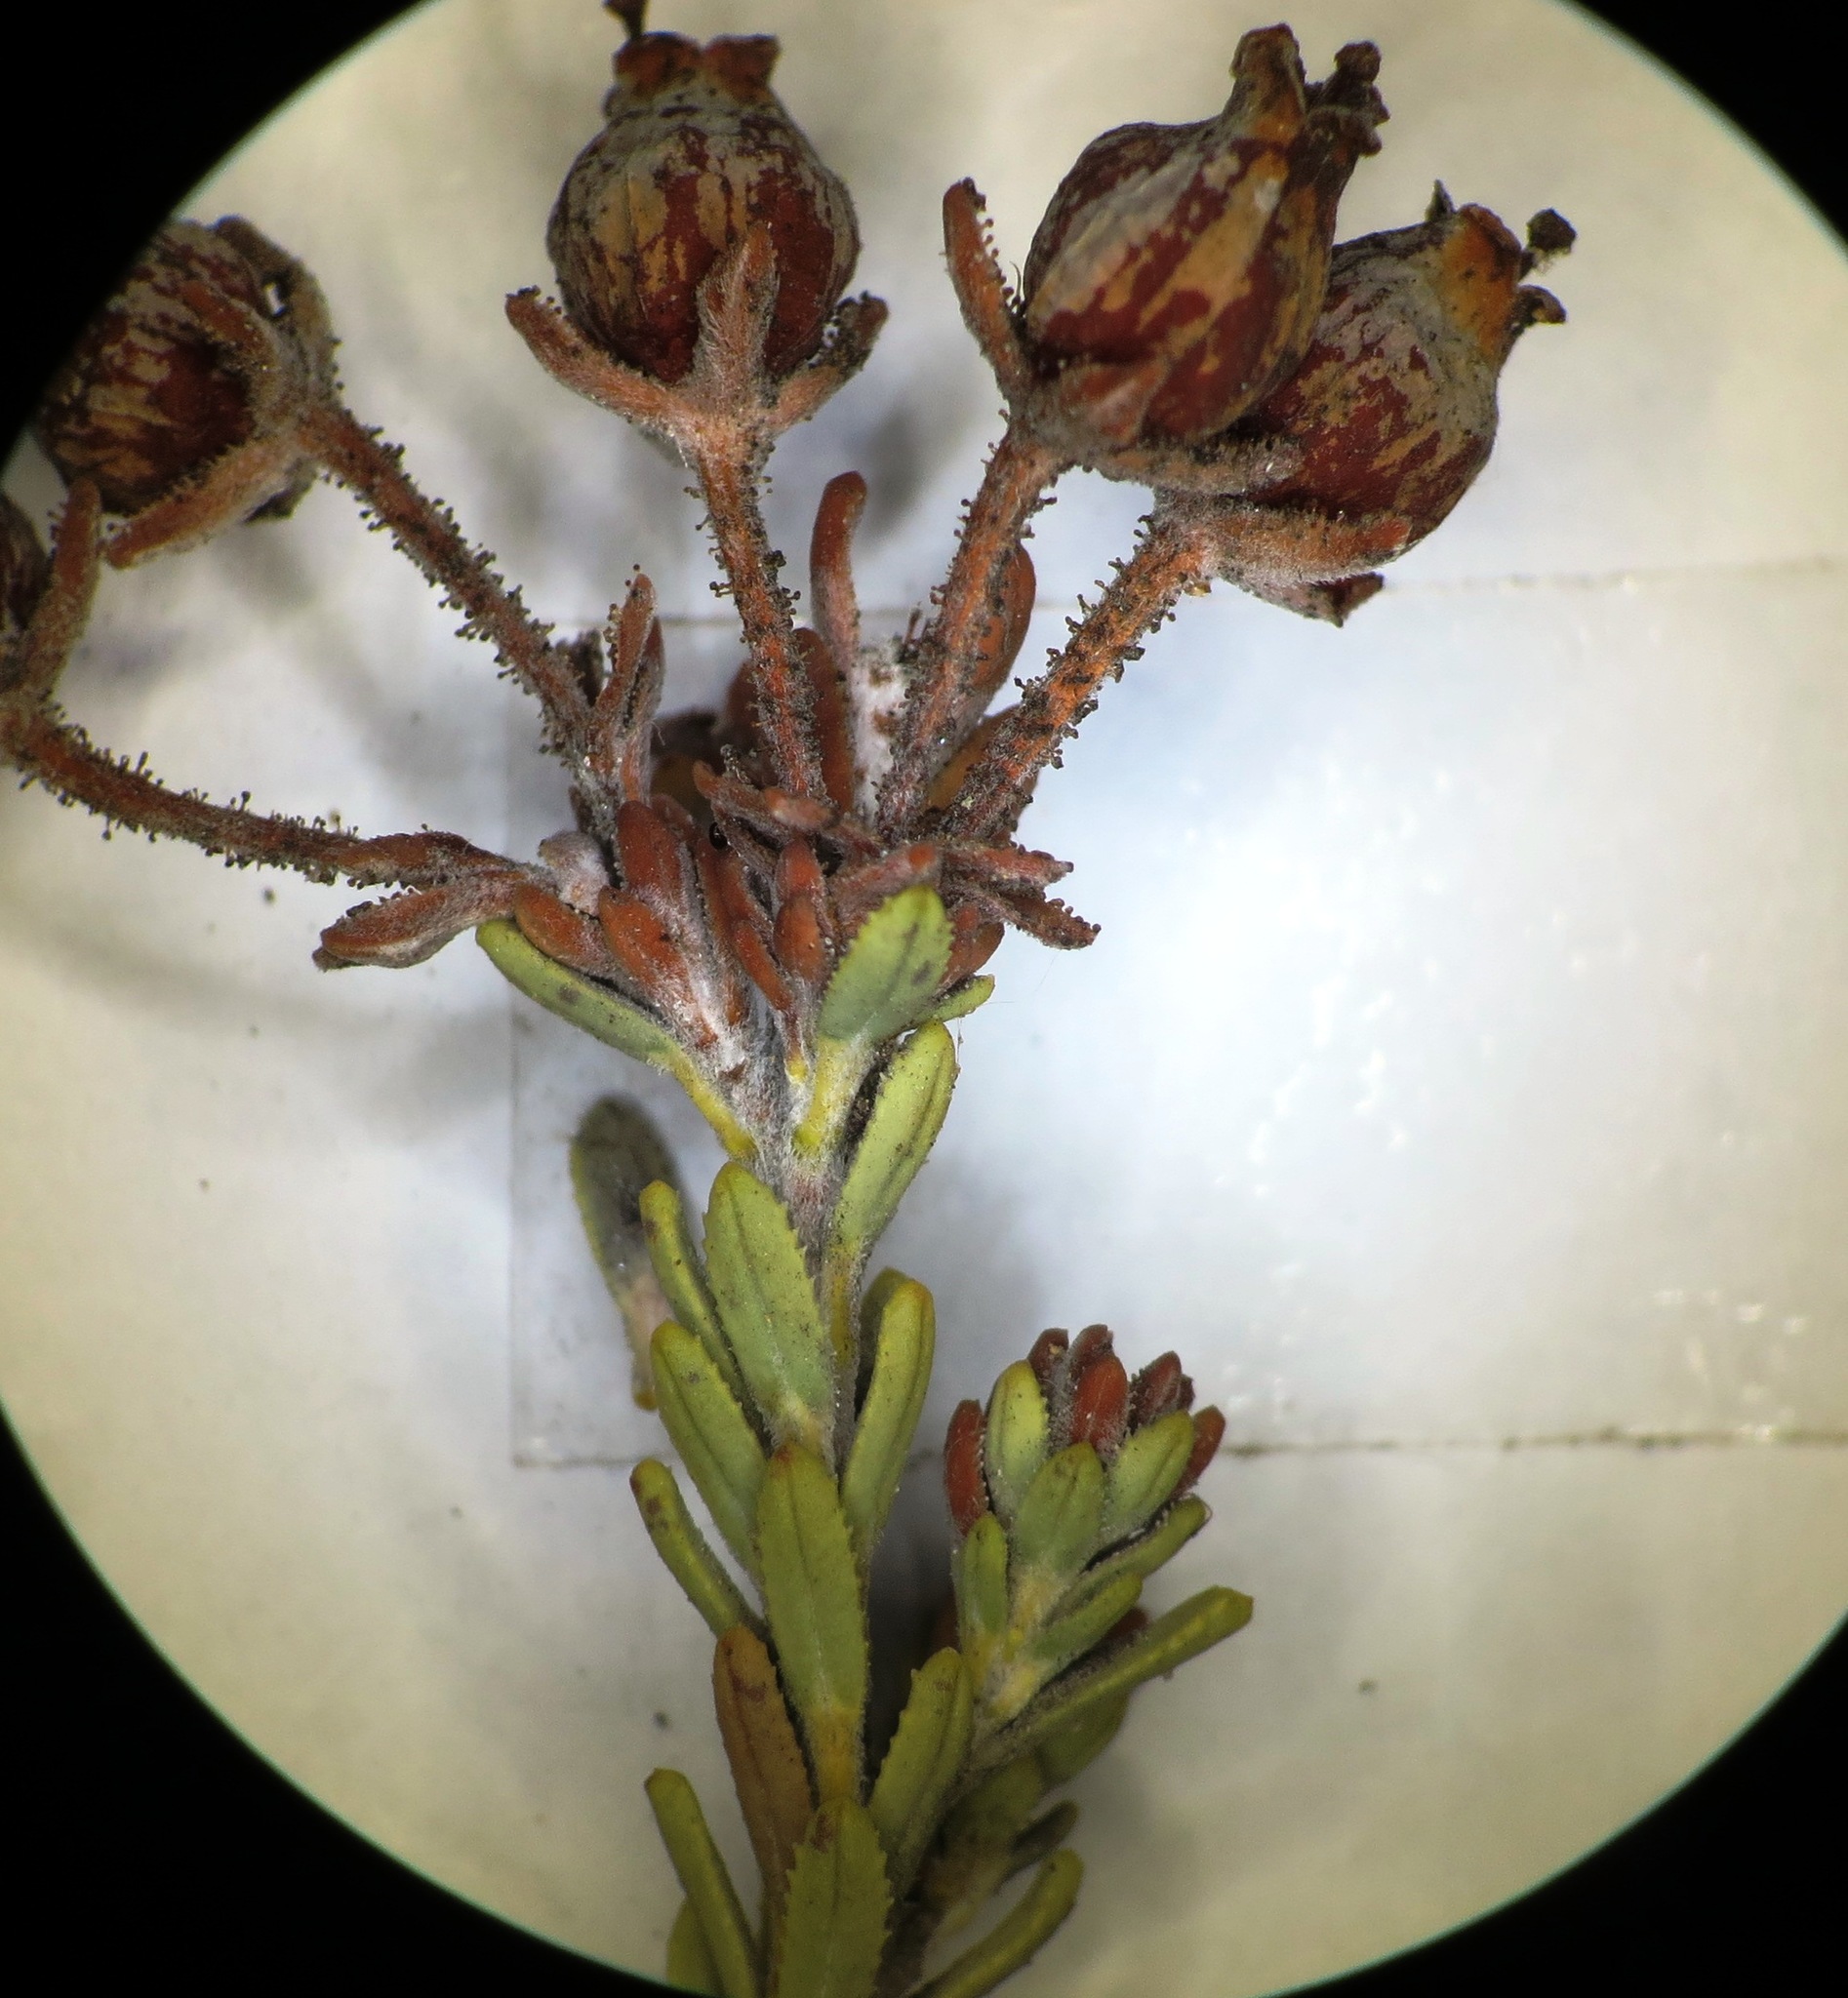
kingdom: Plantae
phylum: Tracheophyta
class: Magnoliopsida
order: Ericales
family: Ericaceae
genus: Erica
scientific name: Erica oresigena
